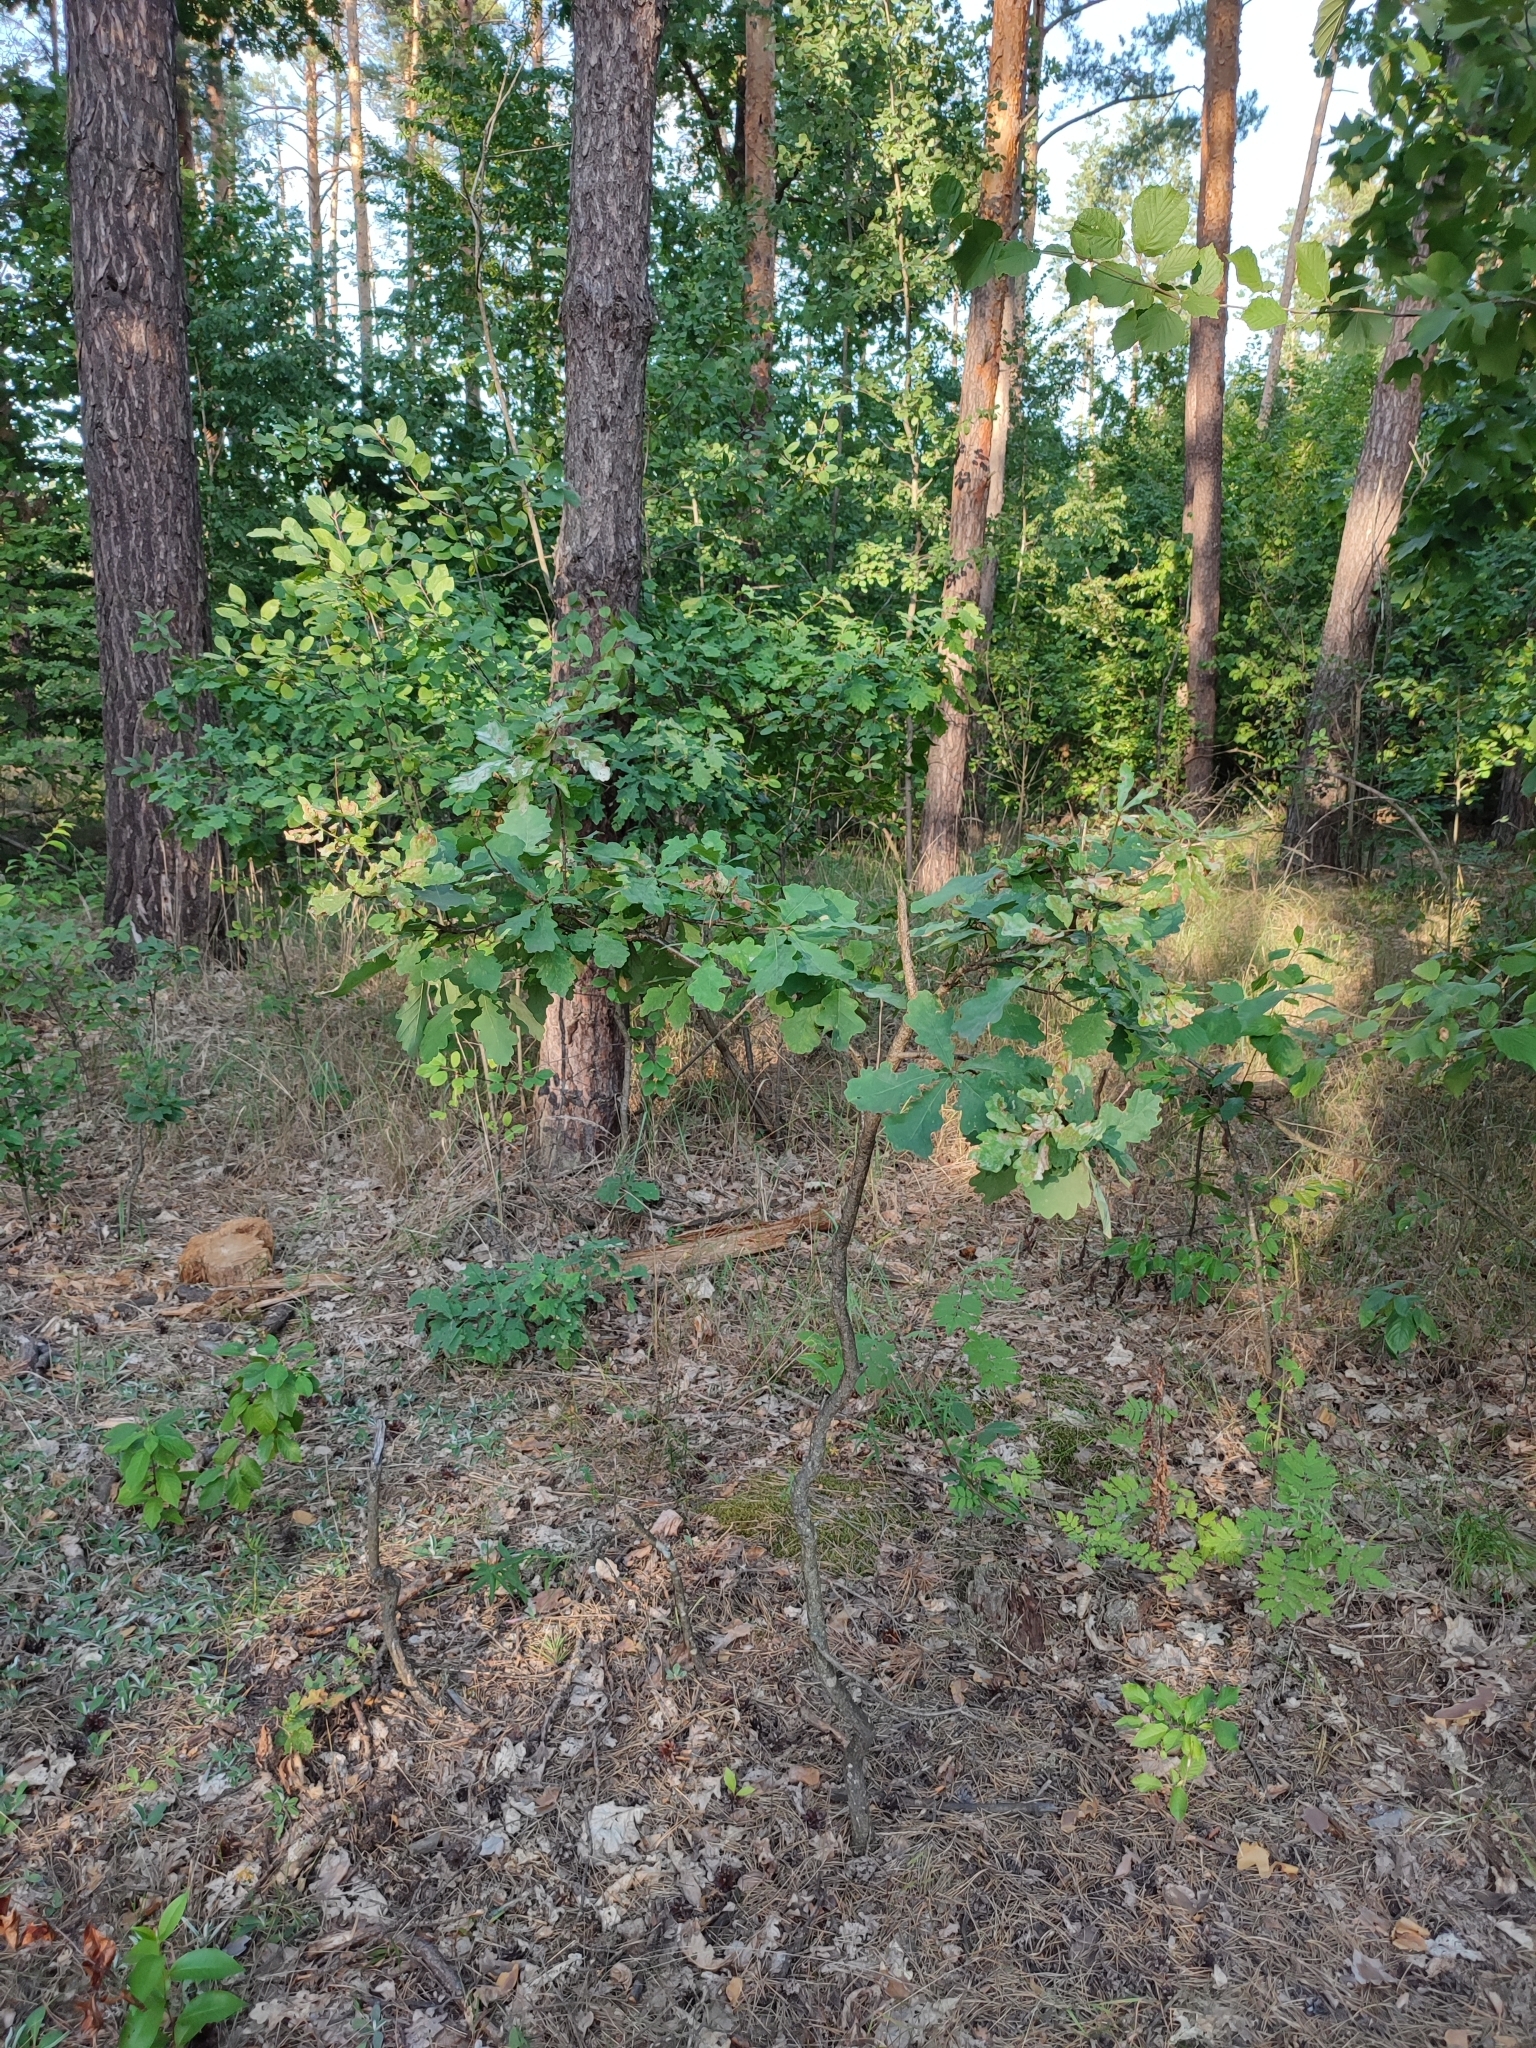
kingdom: Plantae
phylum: Tracheophyta
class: Magnoliopsida
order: Fagales
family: Fagaceae
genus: Quercus
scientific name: Quercus robur
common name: Pedunculate oak
